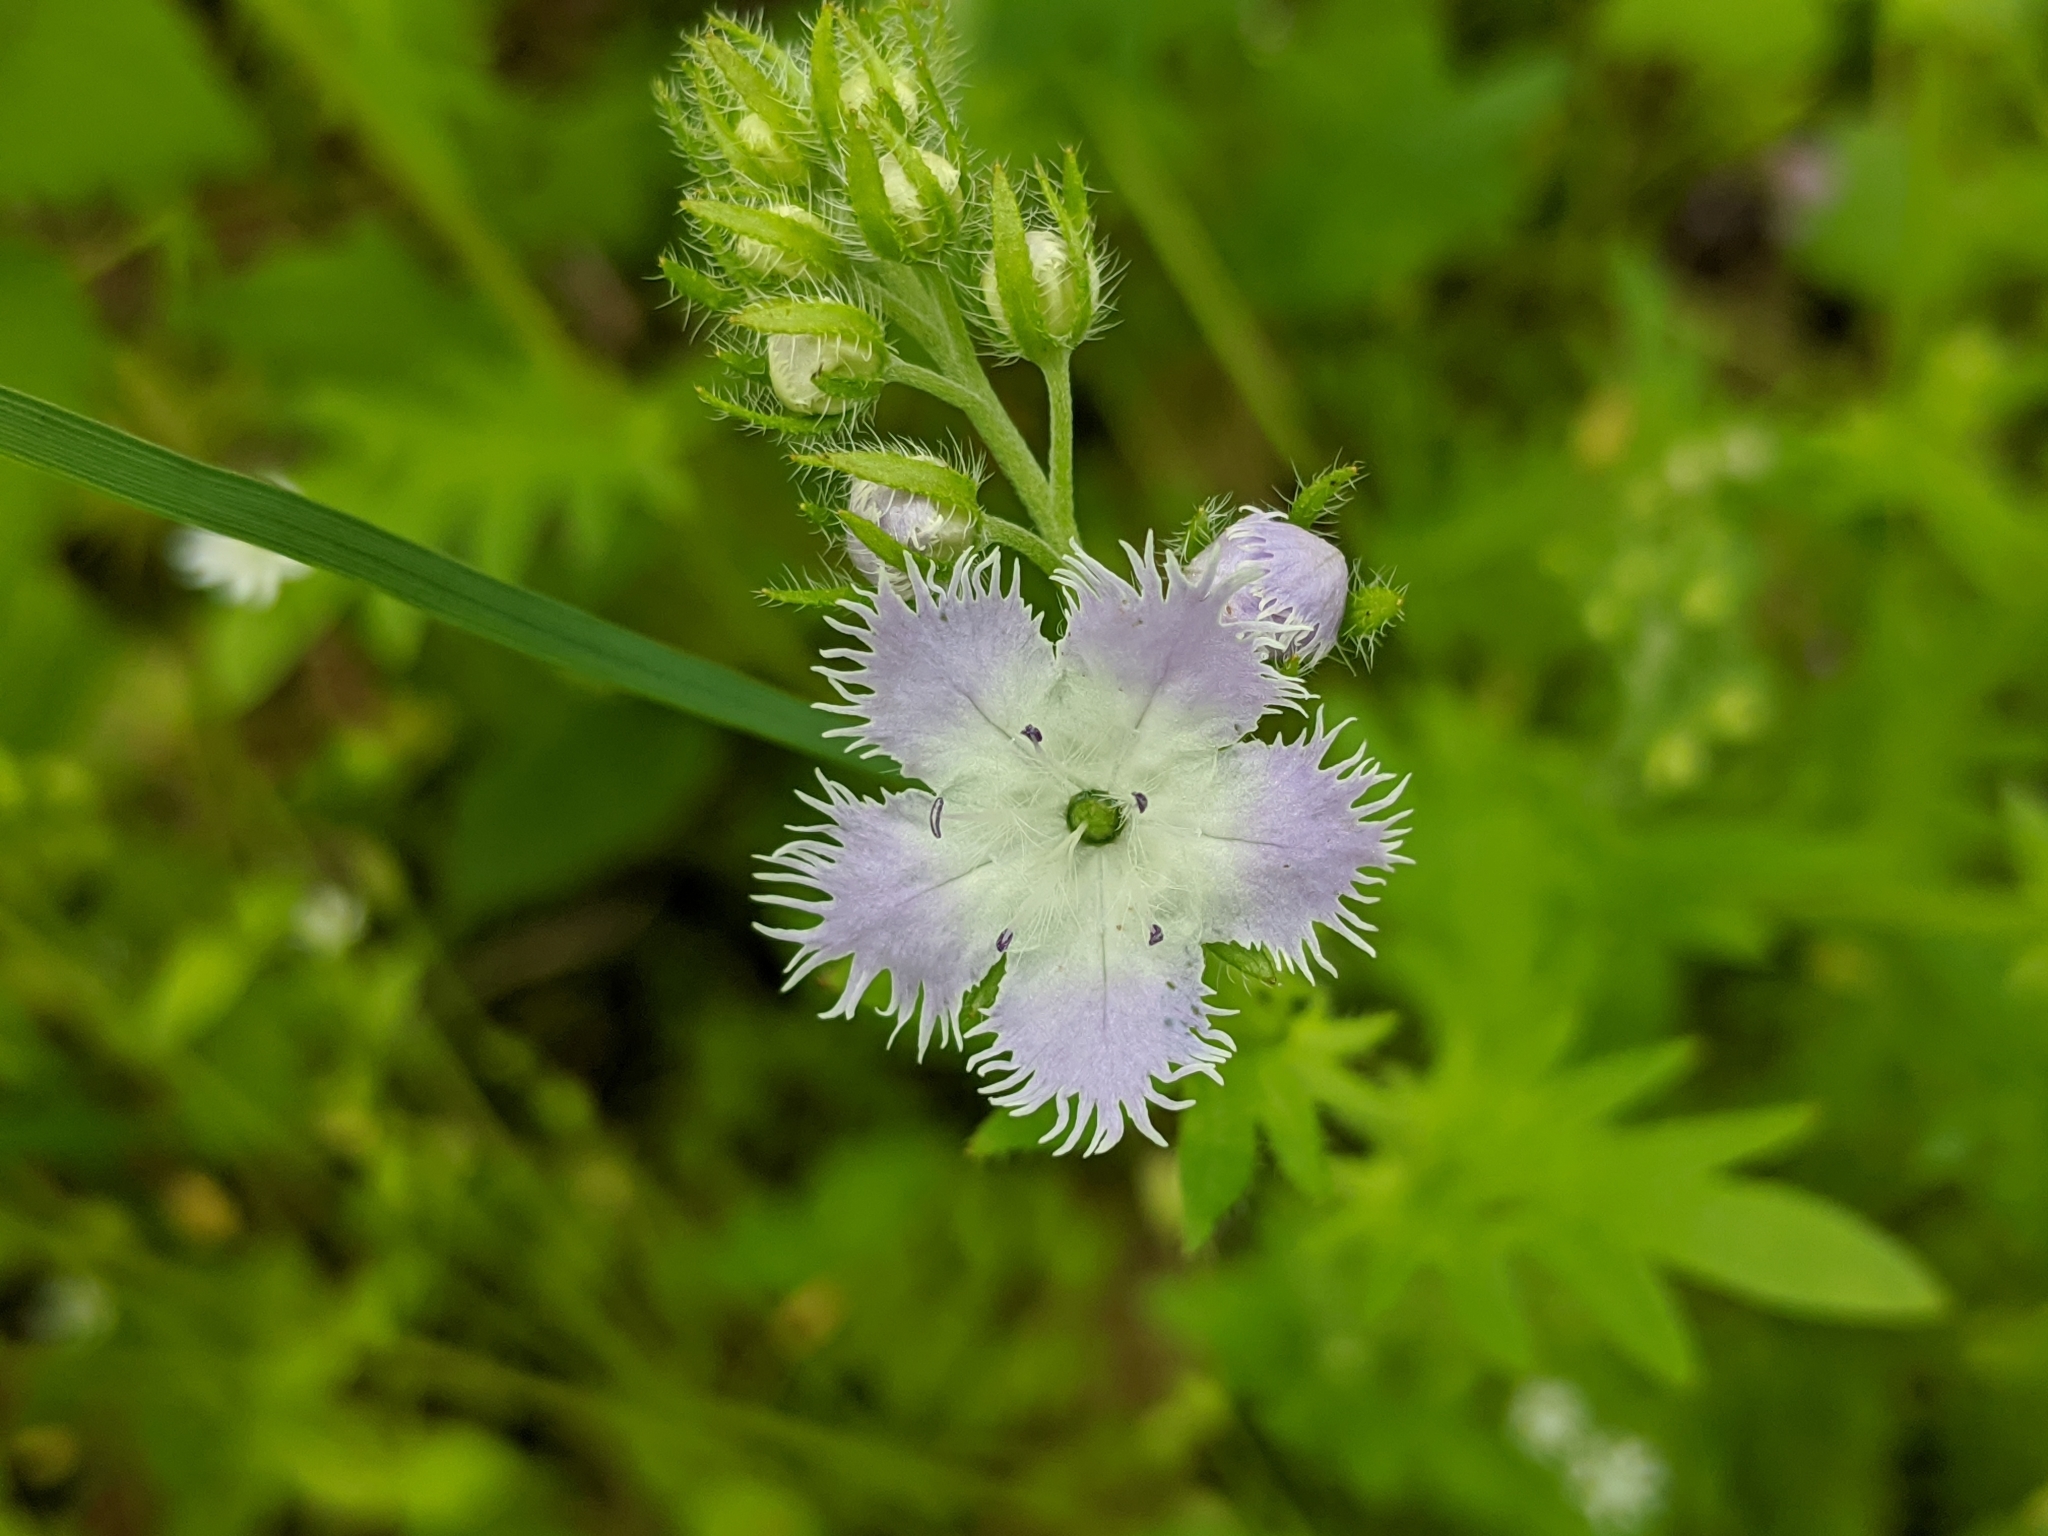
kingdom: Plantae
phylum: Tracheophyta
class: Magnoliopsida
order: Boraginales
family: Hydrophyllaceae
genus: Phacelia
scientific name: Phacelia purshii
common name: Miami-mist
